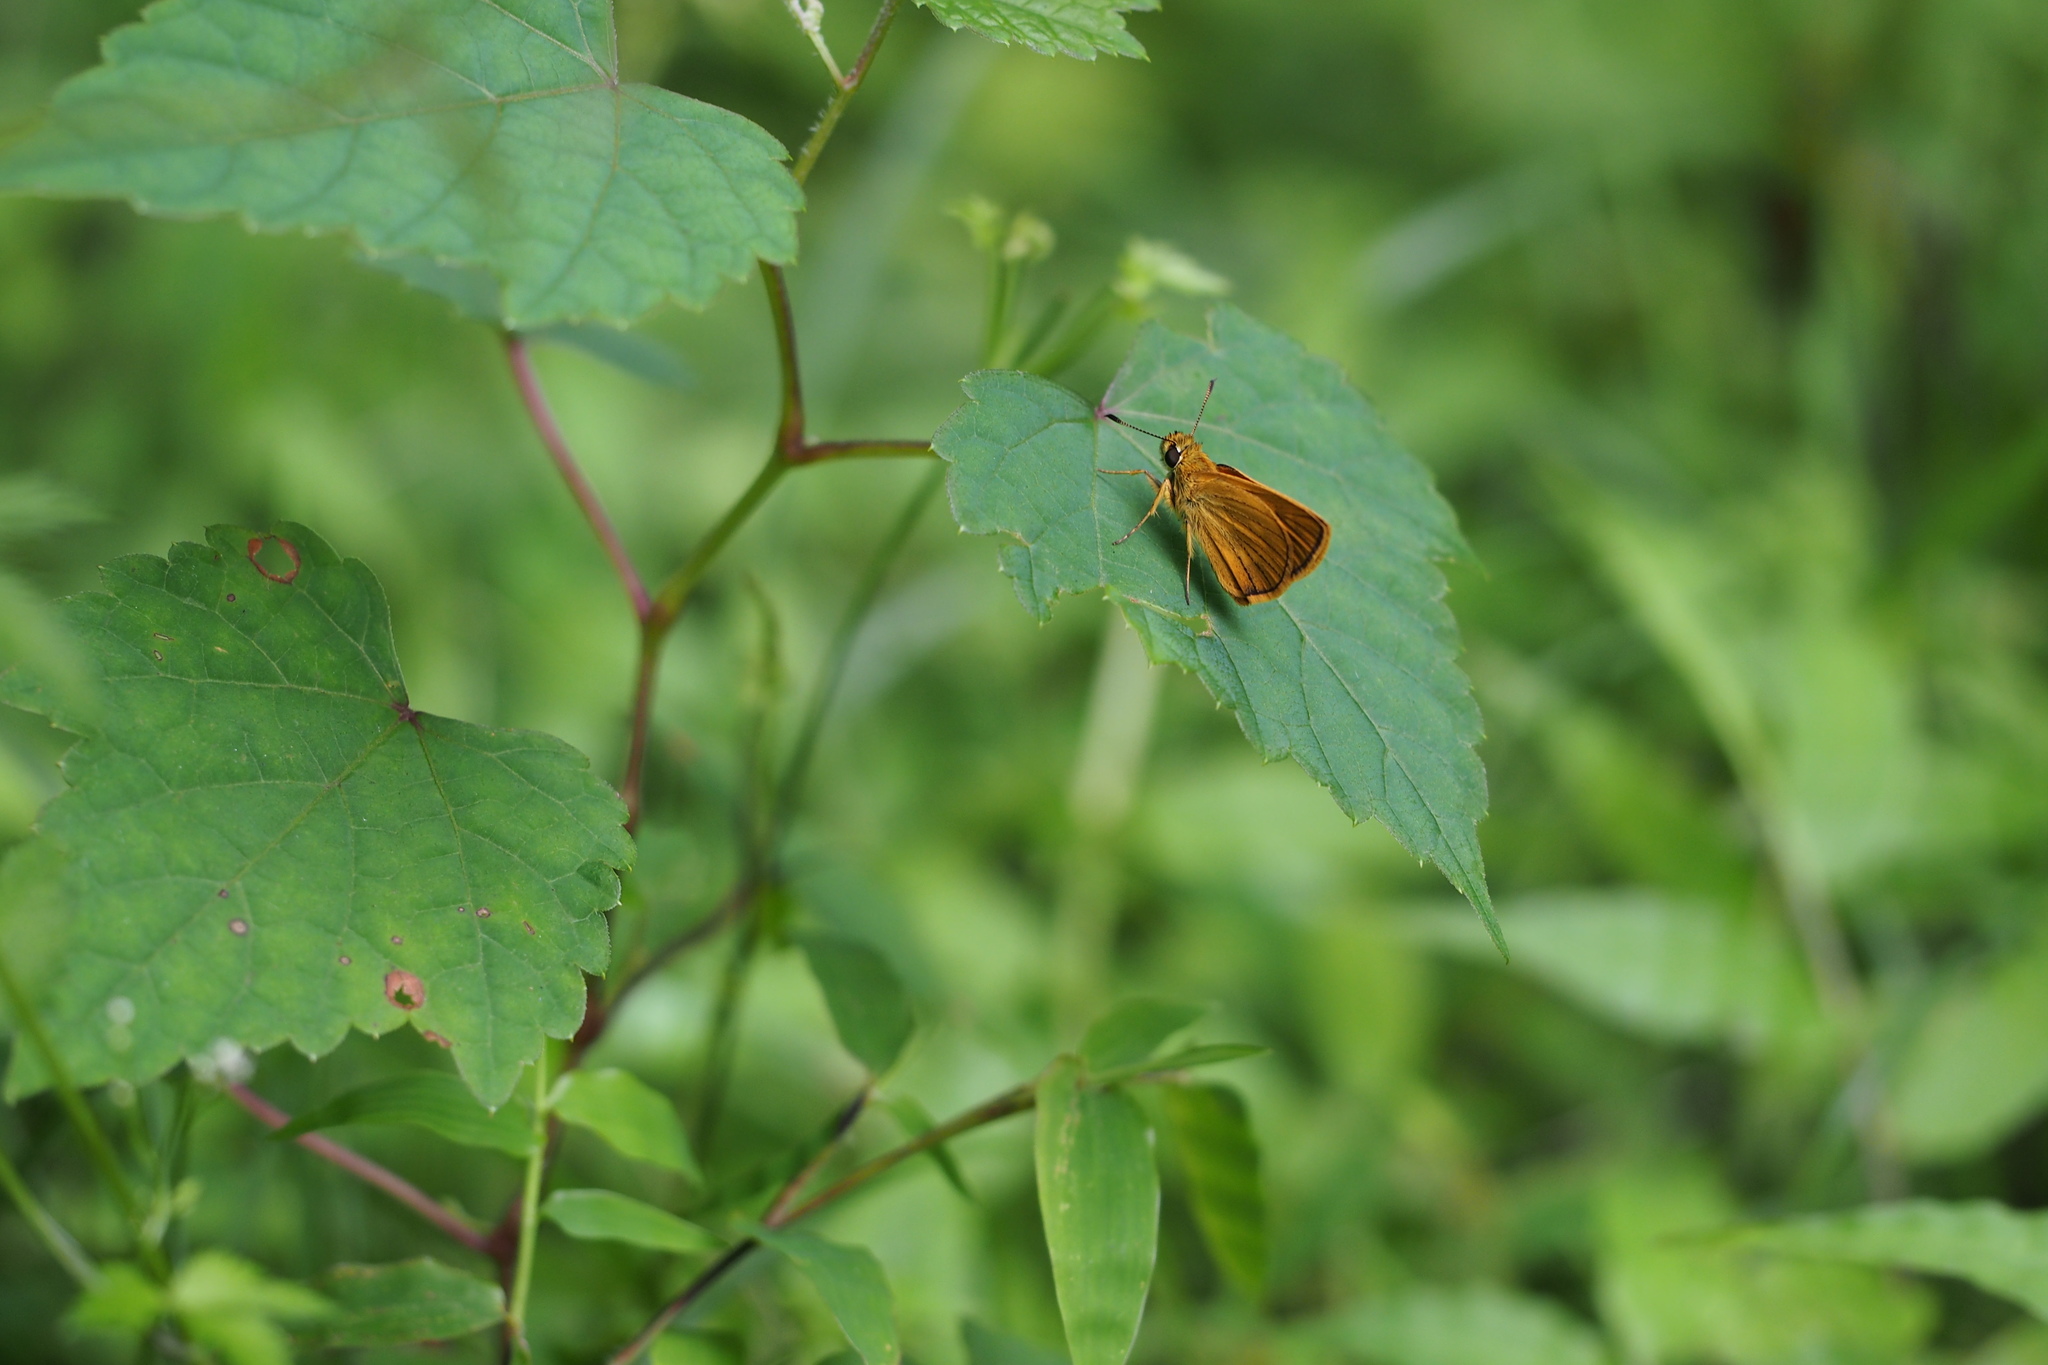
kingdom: Animalia
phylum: Arthropoda
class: Insecta
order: Lepidoptera
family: Hesperiidae
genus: Ochlodes
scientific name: Ochlodes ochracea
